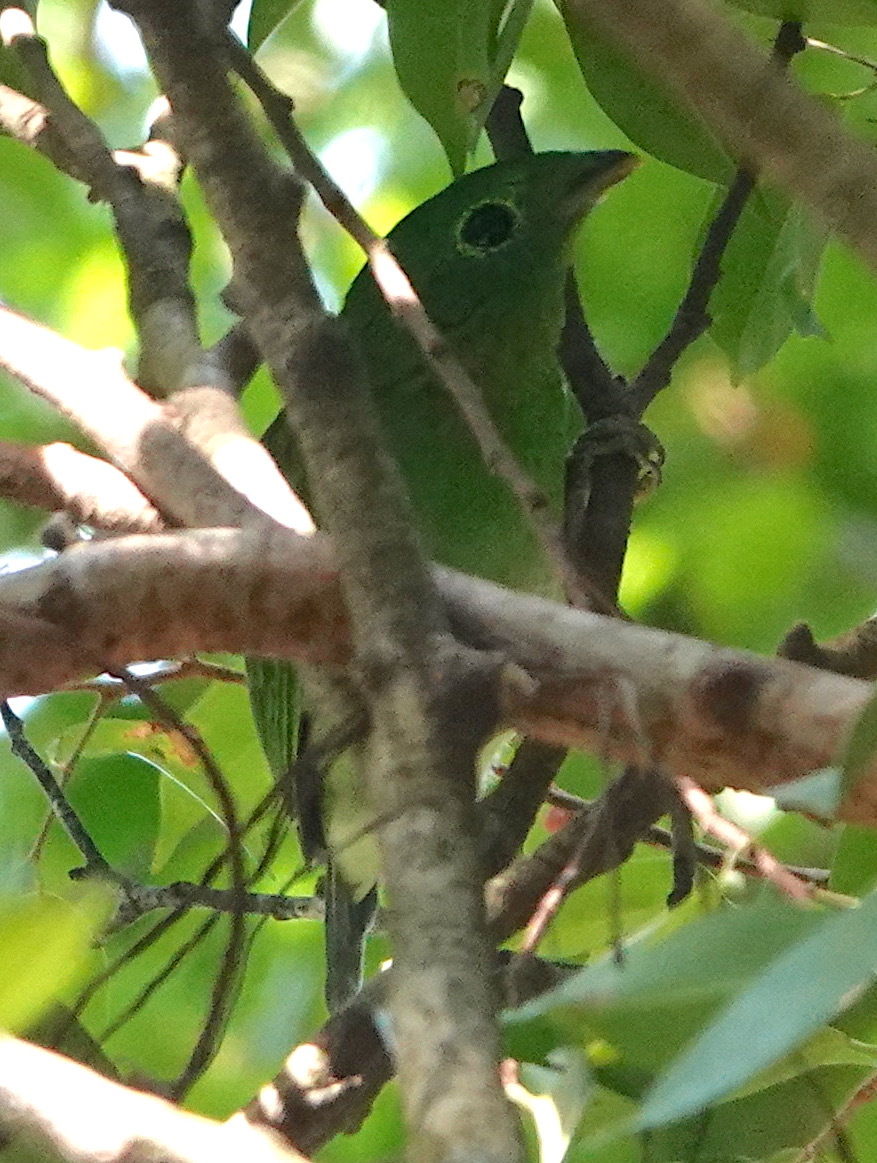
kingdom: Animalia
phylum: Chordata
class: Aves
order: Passeriformes
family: Eurylaimidae
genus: Calyptomena
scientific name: Calyptomena viridis
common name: Green broadbill
